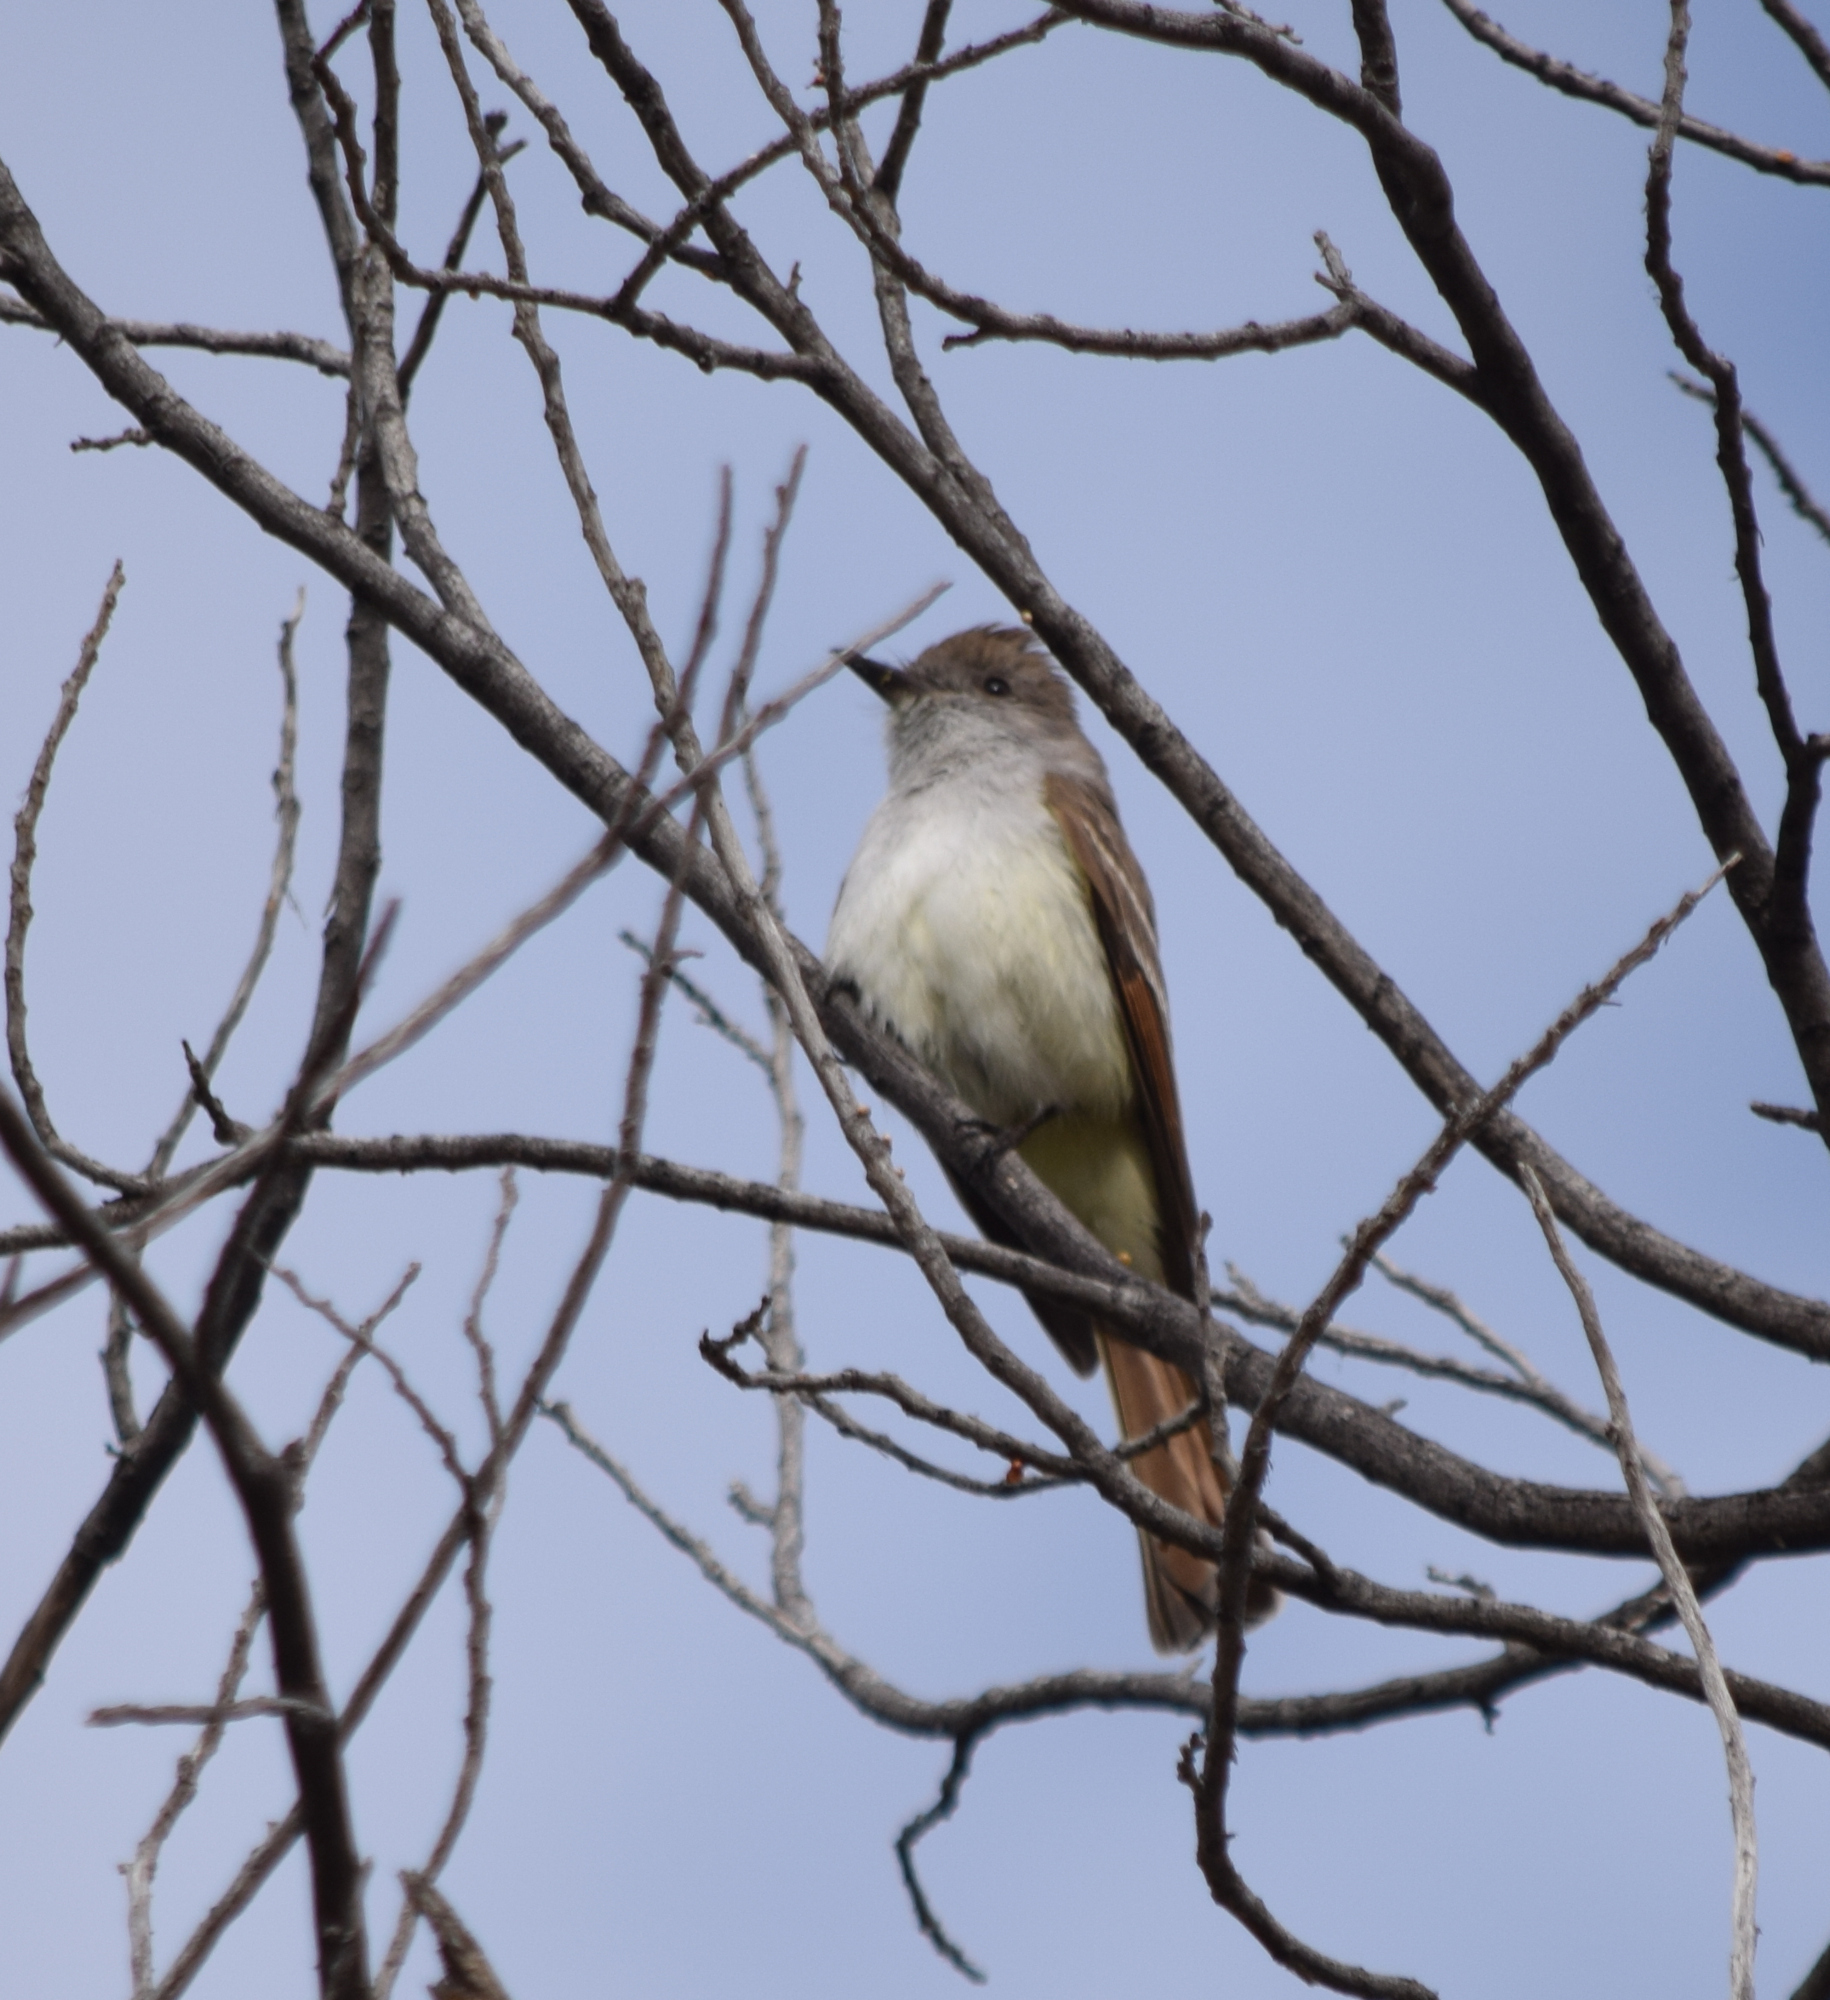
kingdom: Animalia
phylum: Chordata
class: Aves
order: Passeriformes
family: Tyrannidae
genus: Myiarchus
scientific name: Myiarchus cinerascens
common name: Ash-throated flycatcher
